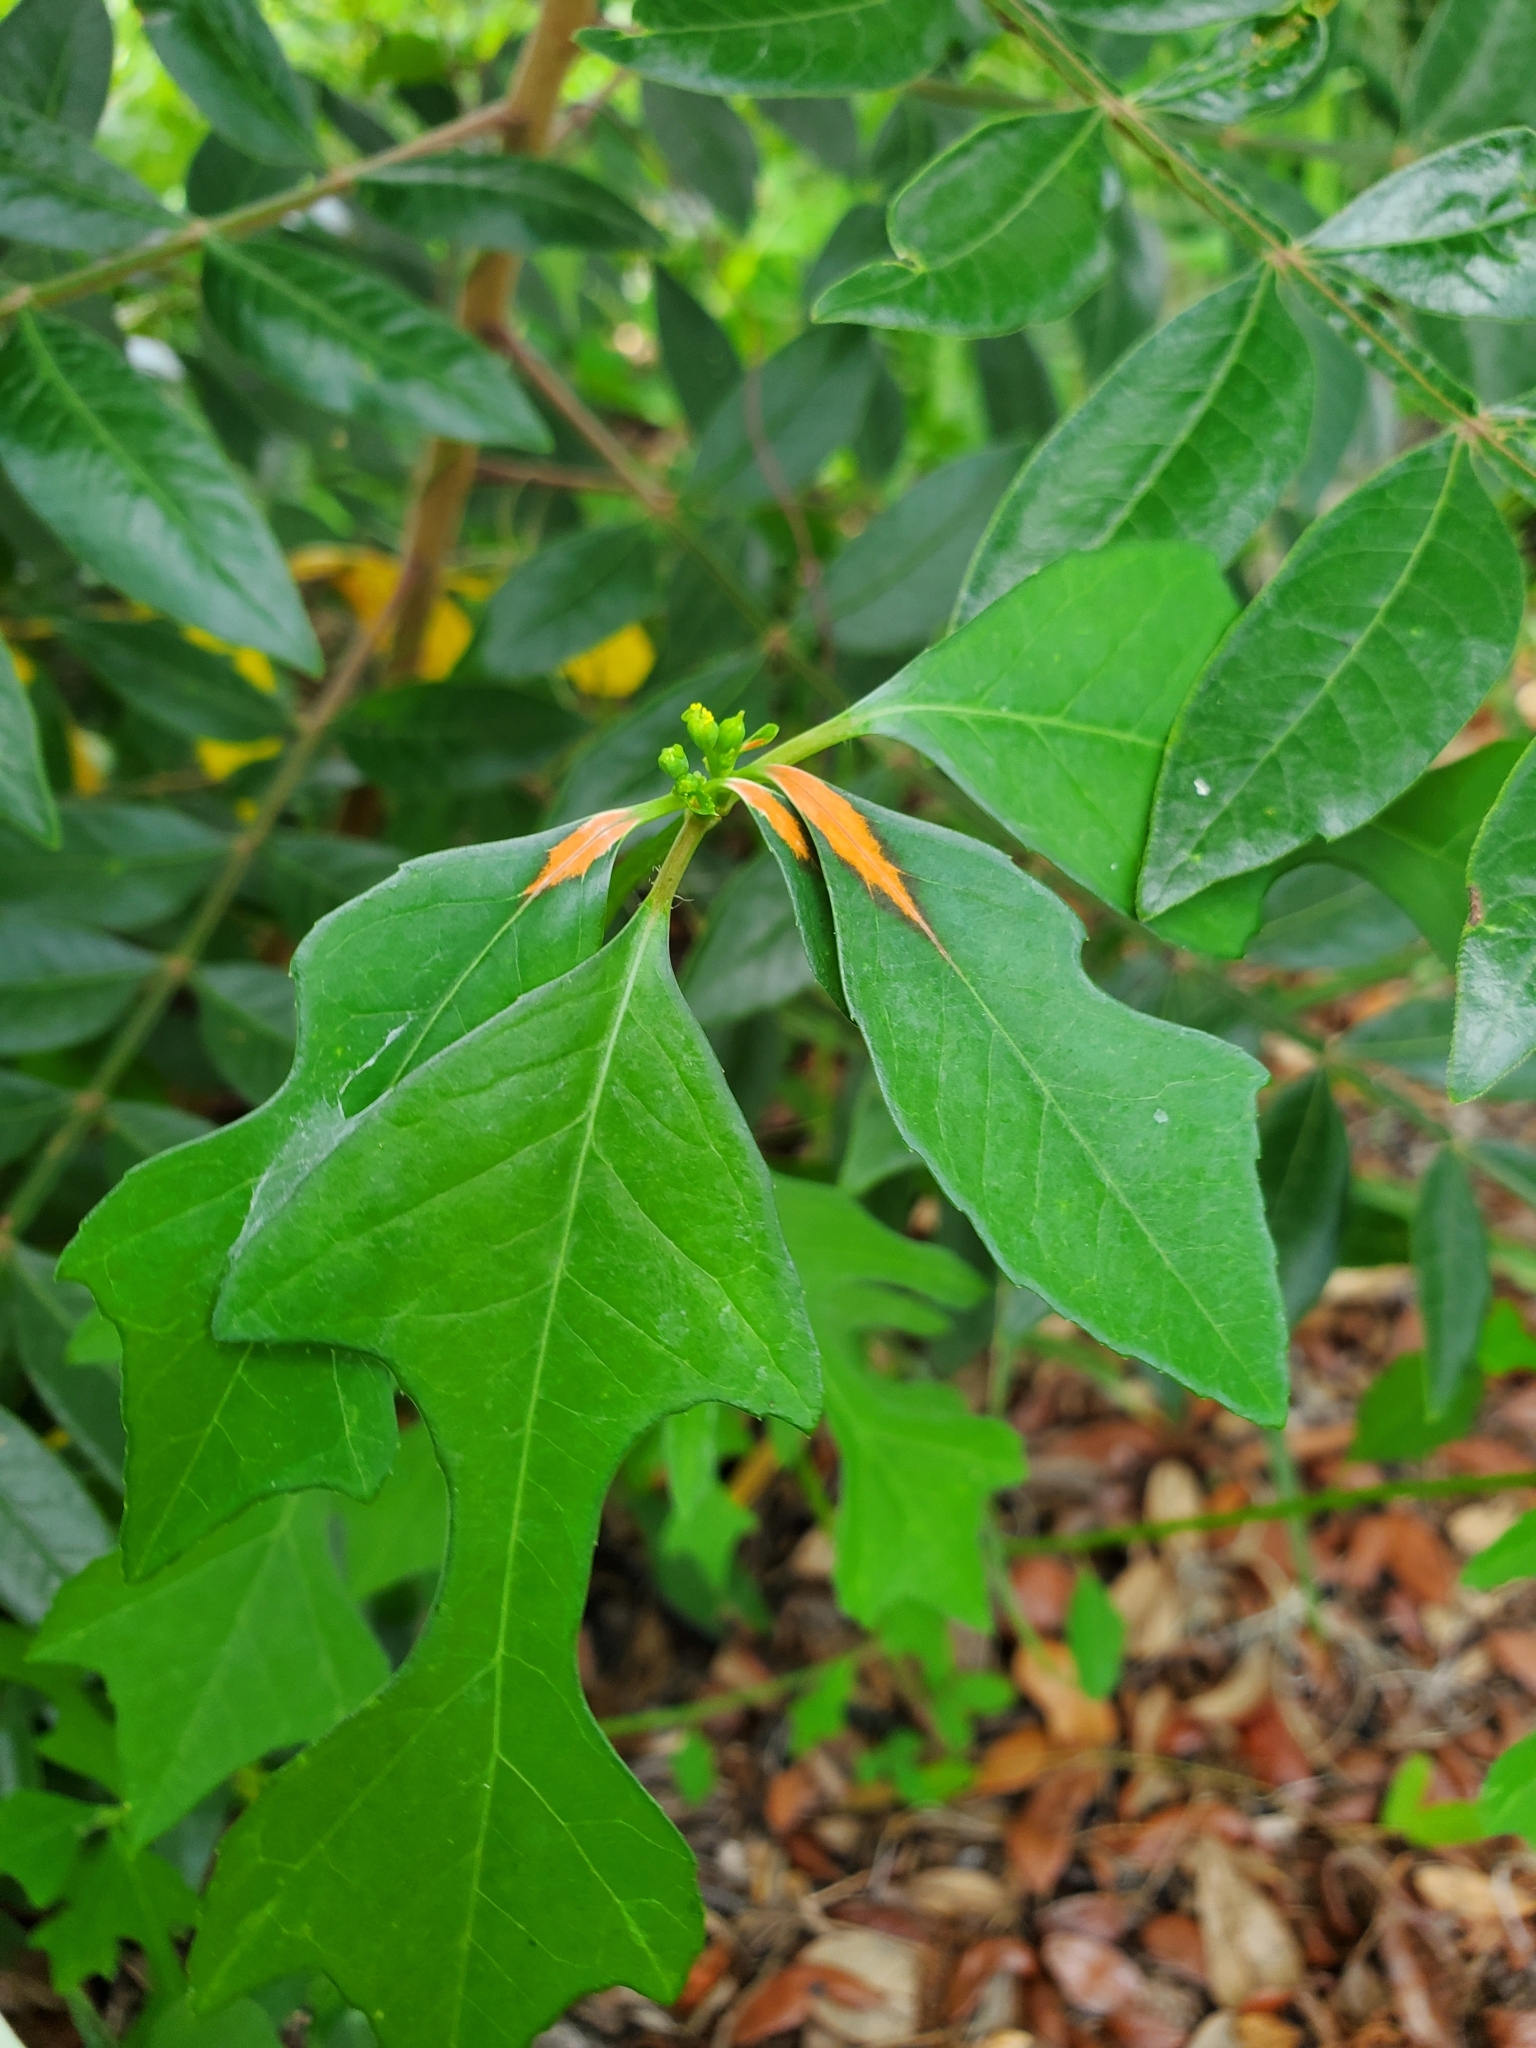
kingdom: Plantae
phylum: Tracheophyta
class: Magnoliopsida
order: Malpighiales
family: Euphorbiaceae
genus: Euphorbia
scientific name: Euphorbia heterophylla
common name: Mexican fireplant
